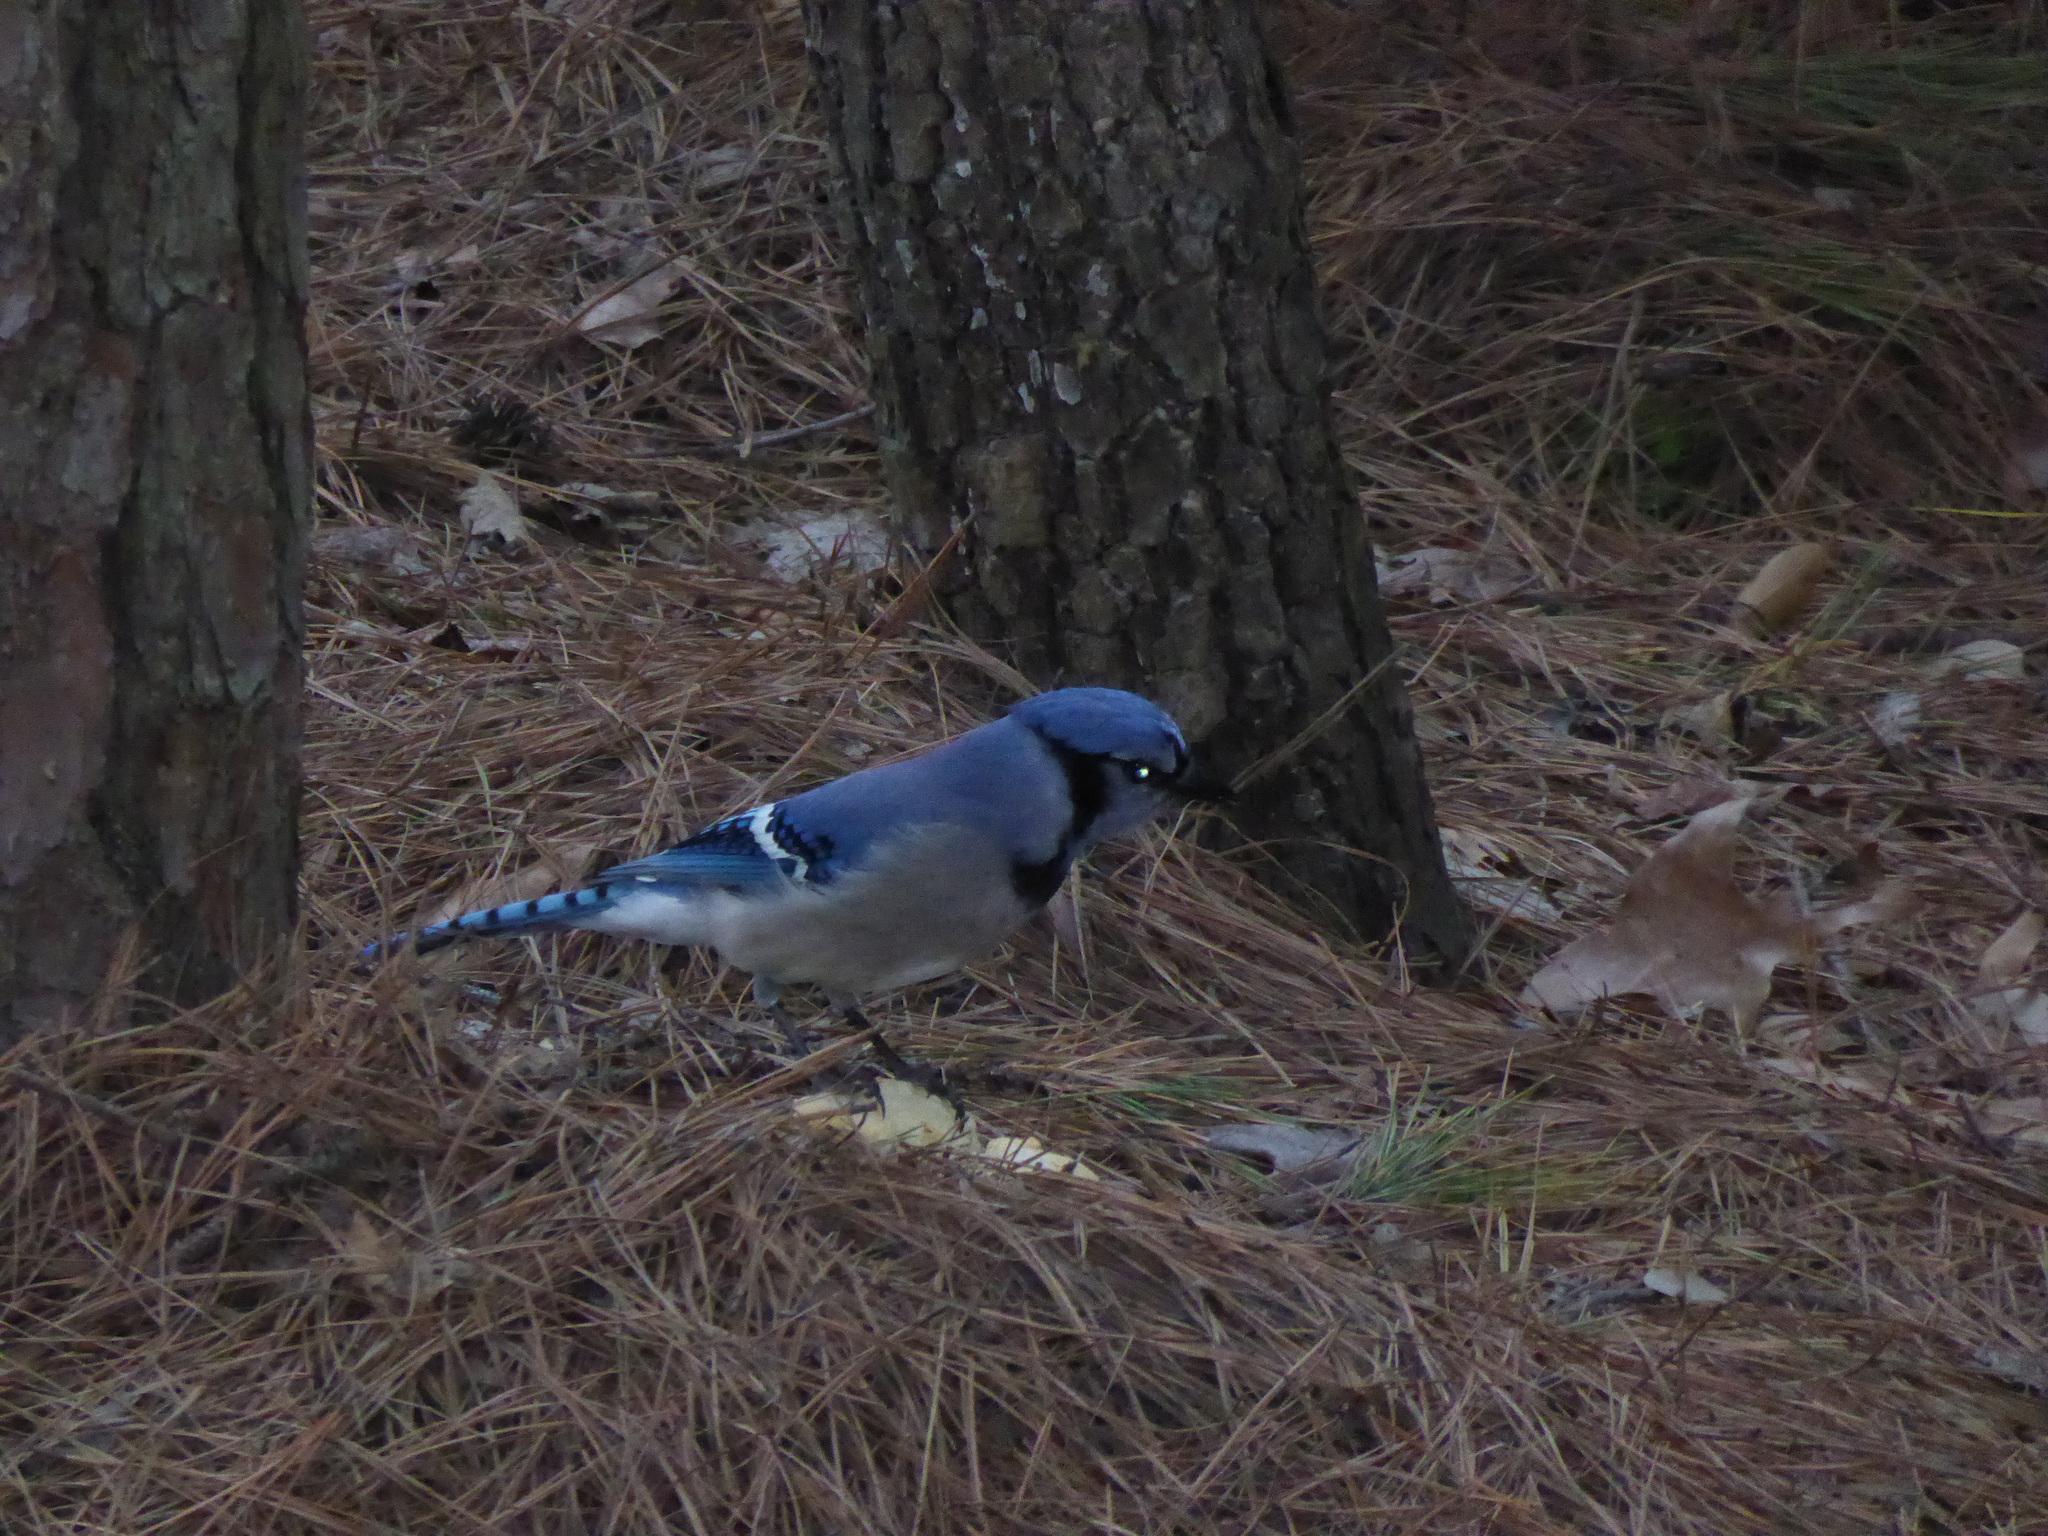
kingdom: Animalia
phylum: Chordata
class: Aves
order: Passeriformes
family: Corvidae
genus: Cyanocitta
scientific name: Cyanocitta cristata
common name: Blue jay
